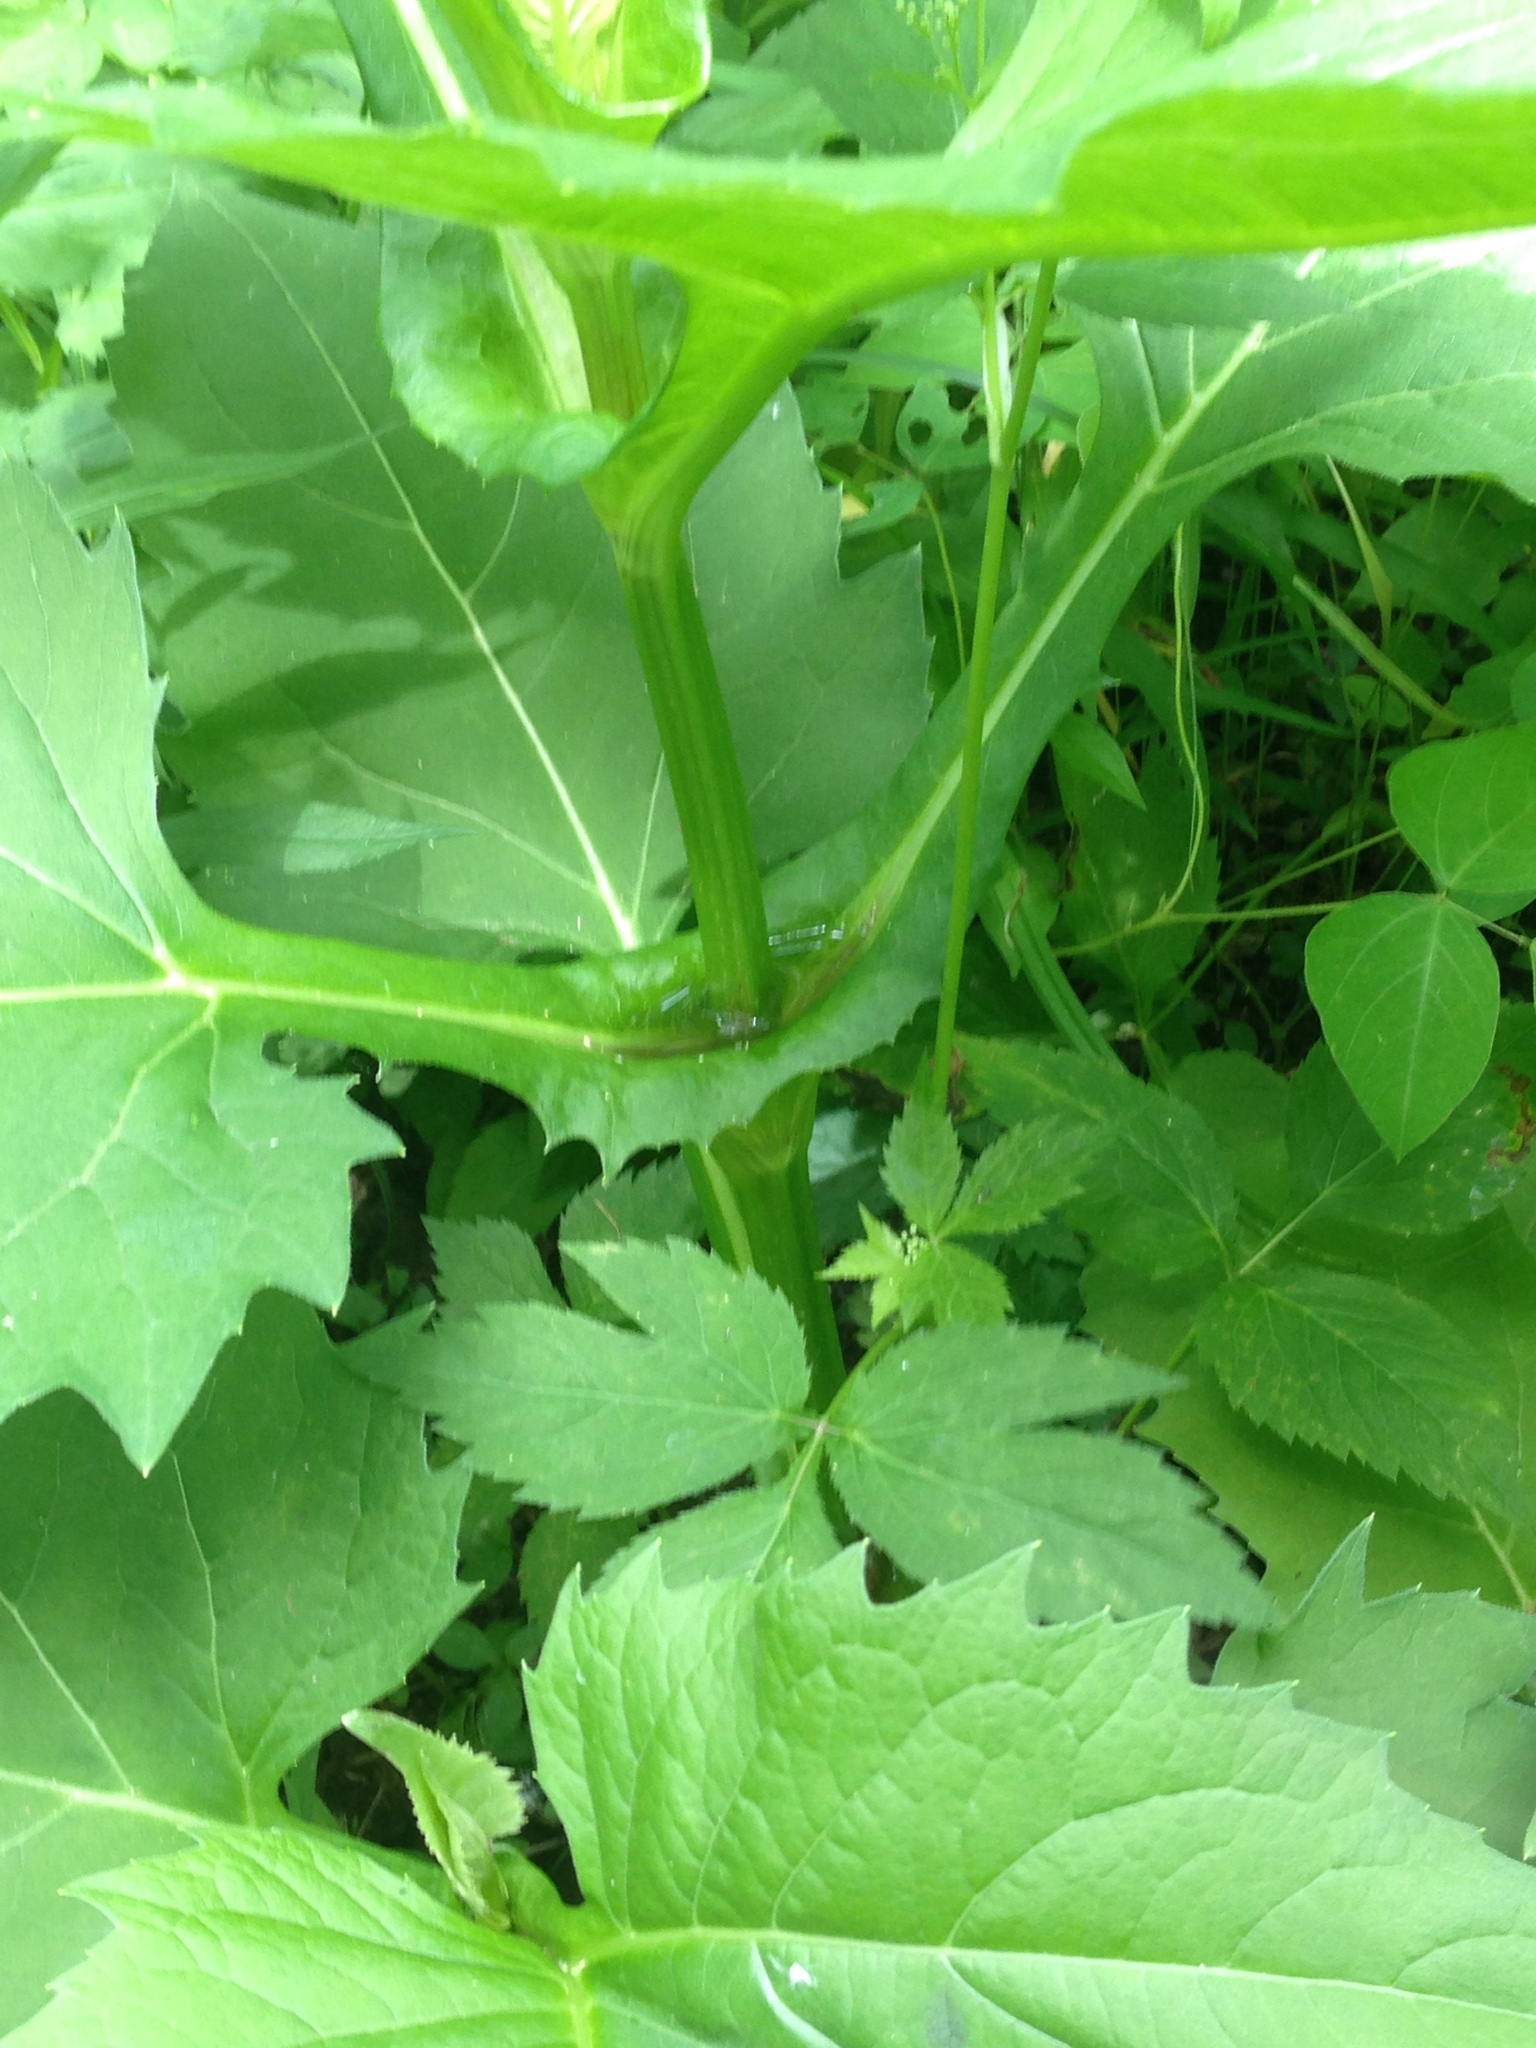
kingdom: Plantae
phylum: Tracheophyta
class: Magnoliopsida
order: Asterales
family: Asteraceae
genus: Silphium
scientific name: Silphium perfoliatum
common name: Cup-plant
